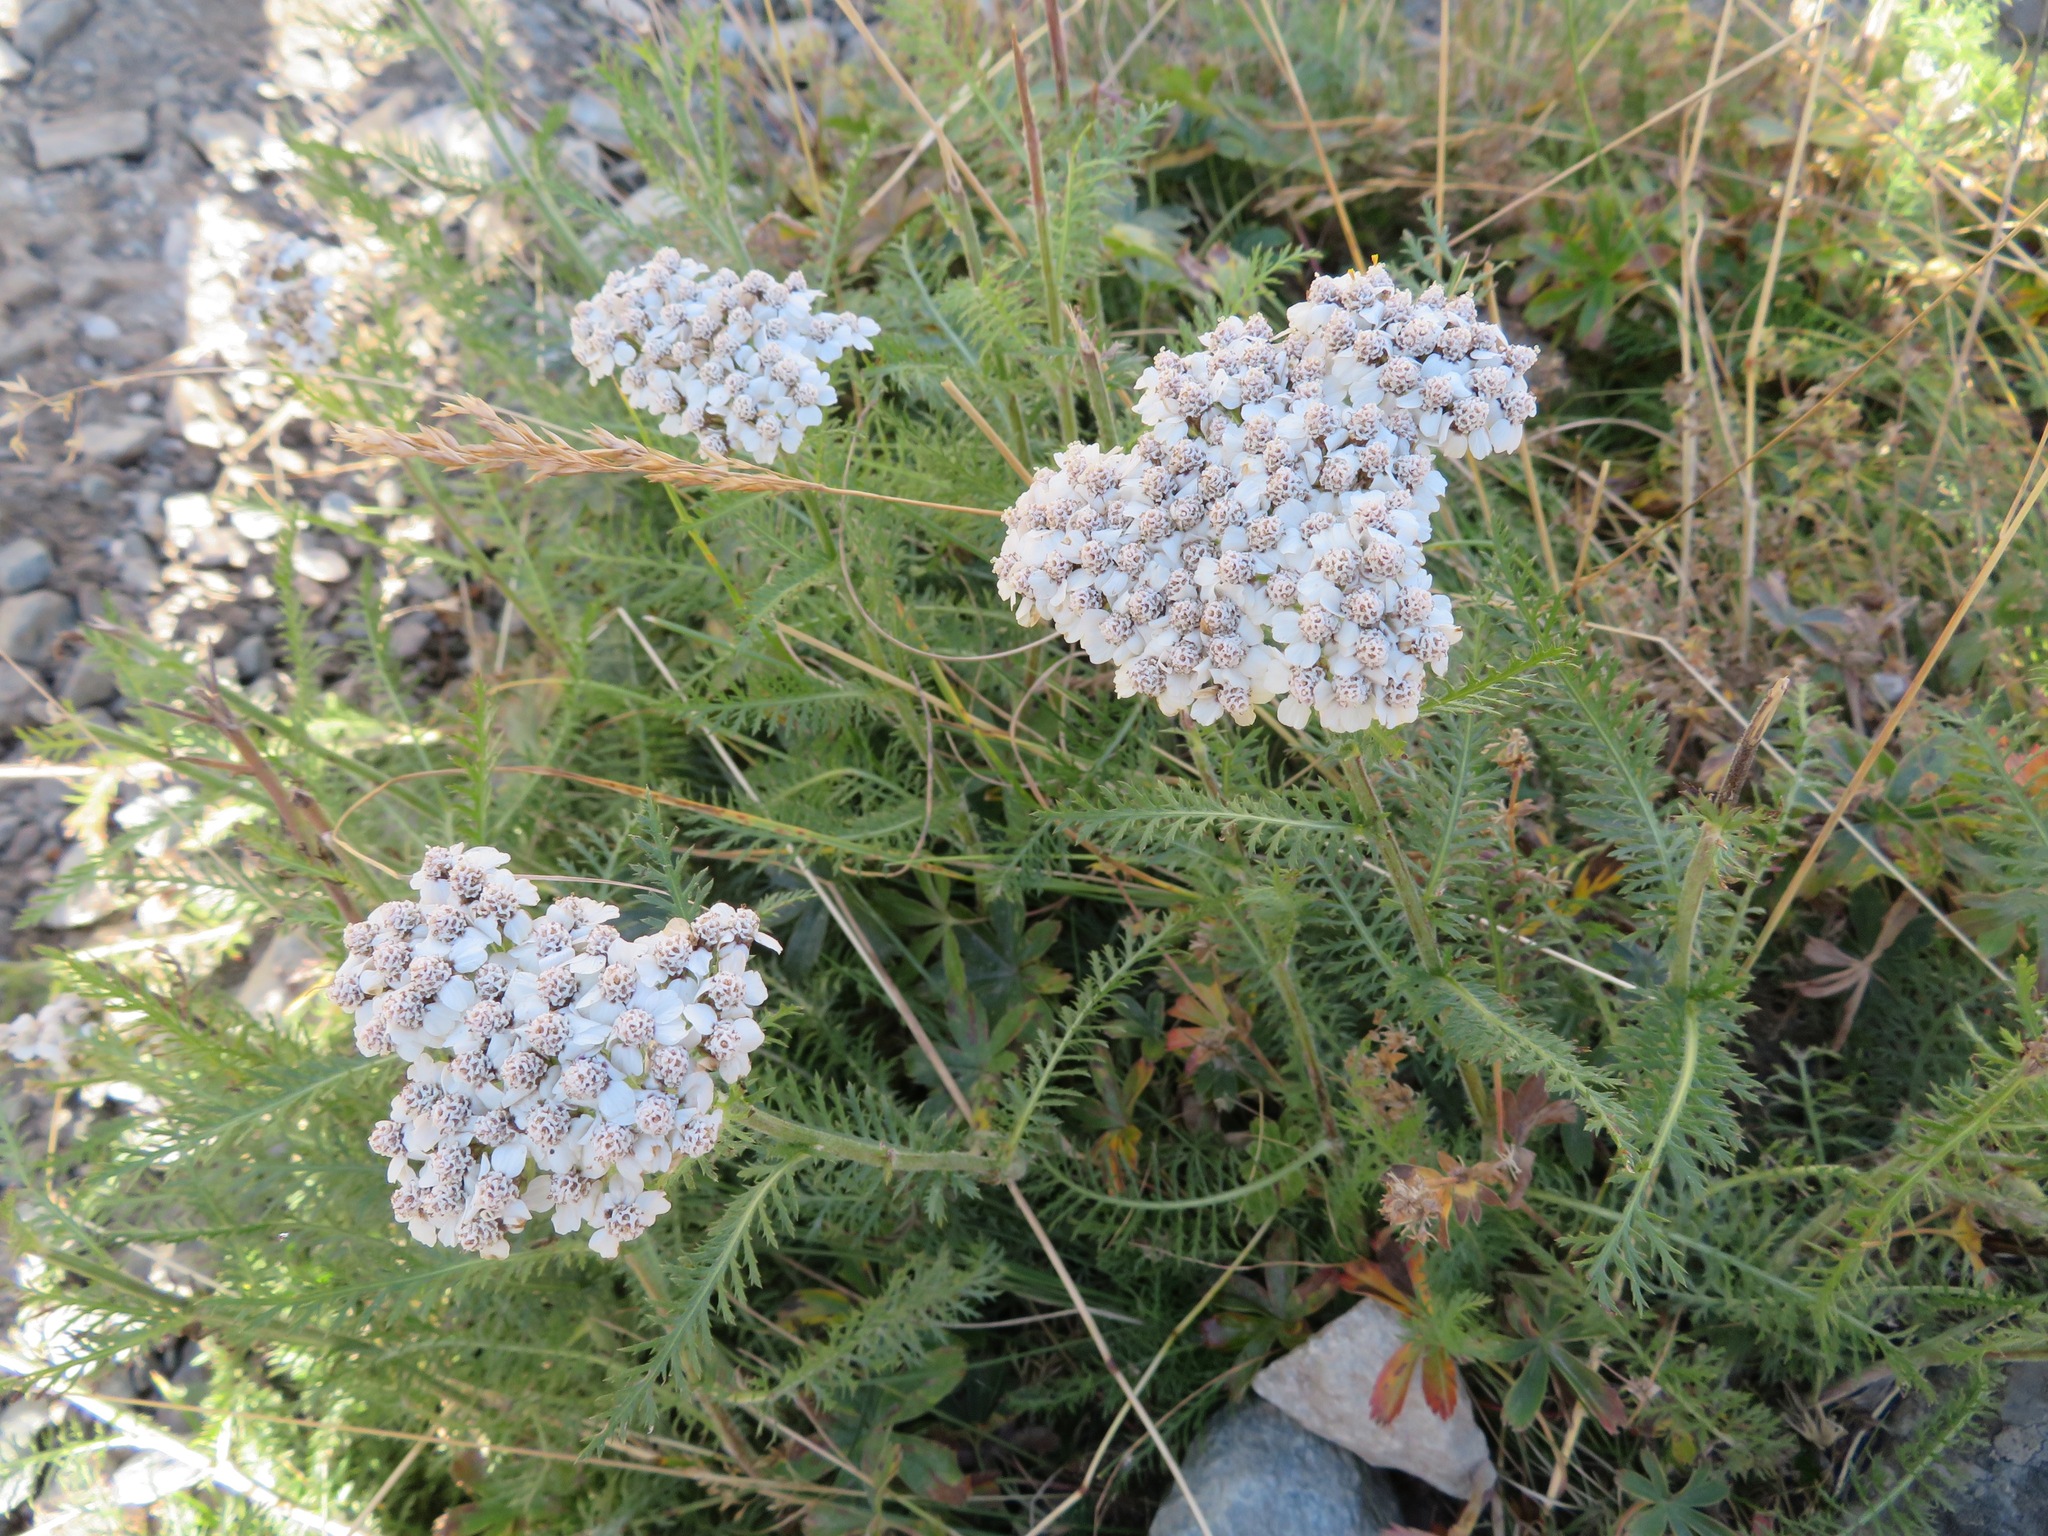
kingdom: Plantae
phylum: Tracheophyta
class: Magnoliopsida
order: Asterales
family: Asteraceae
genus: Achillea
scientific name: Achillea millefolium
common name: Yarrow
